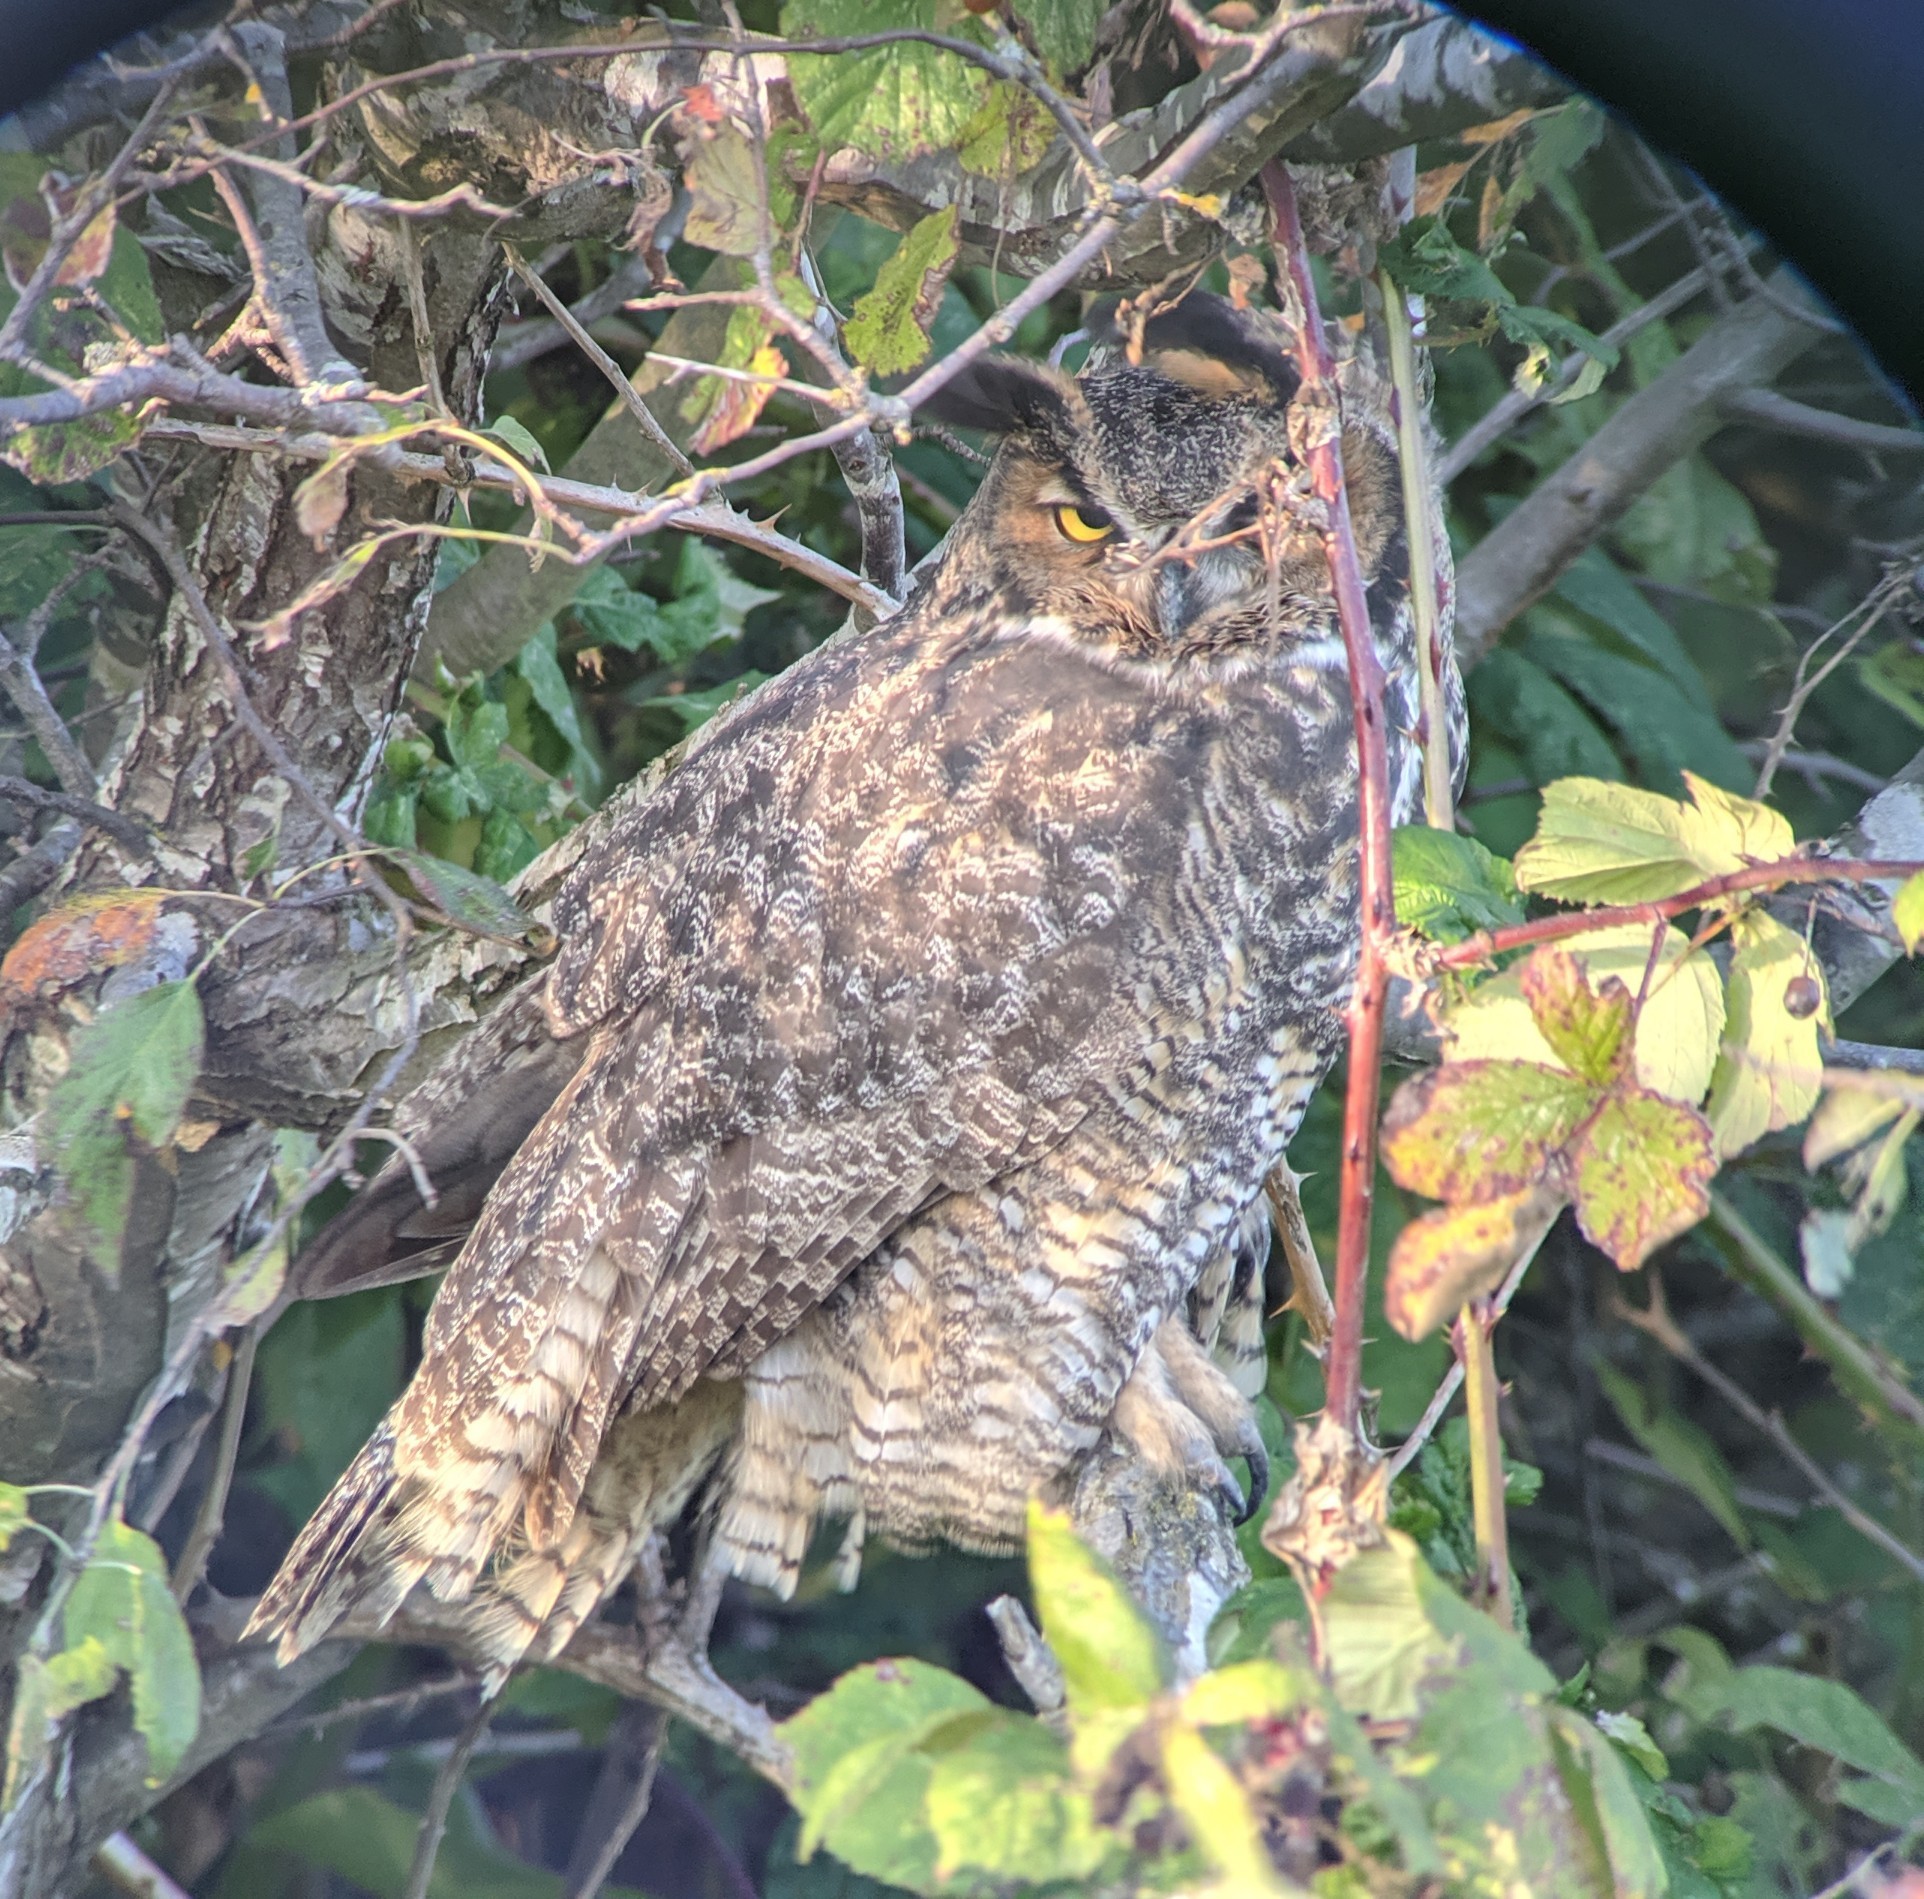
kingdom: Animalia
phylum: Chordata
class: Aves
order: Strigiformes
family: Strigidae
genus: Bubo
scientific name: Bubo virginianus
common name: Great horned owl
